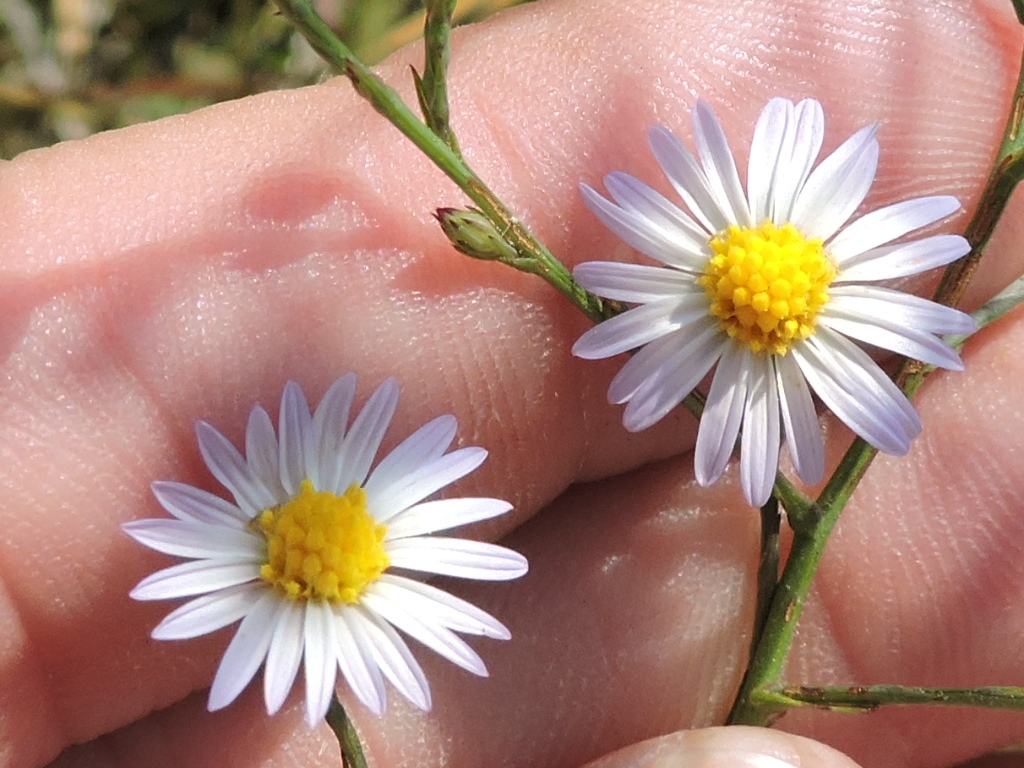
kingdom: Plantae
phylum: Tracheophyta
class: Magnoliopsida
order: Asterales
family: Asteraceae
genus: Symphyotrichum
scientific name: Symphyotrichum divaricatum
